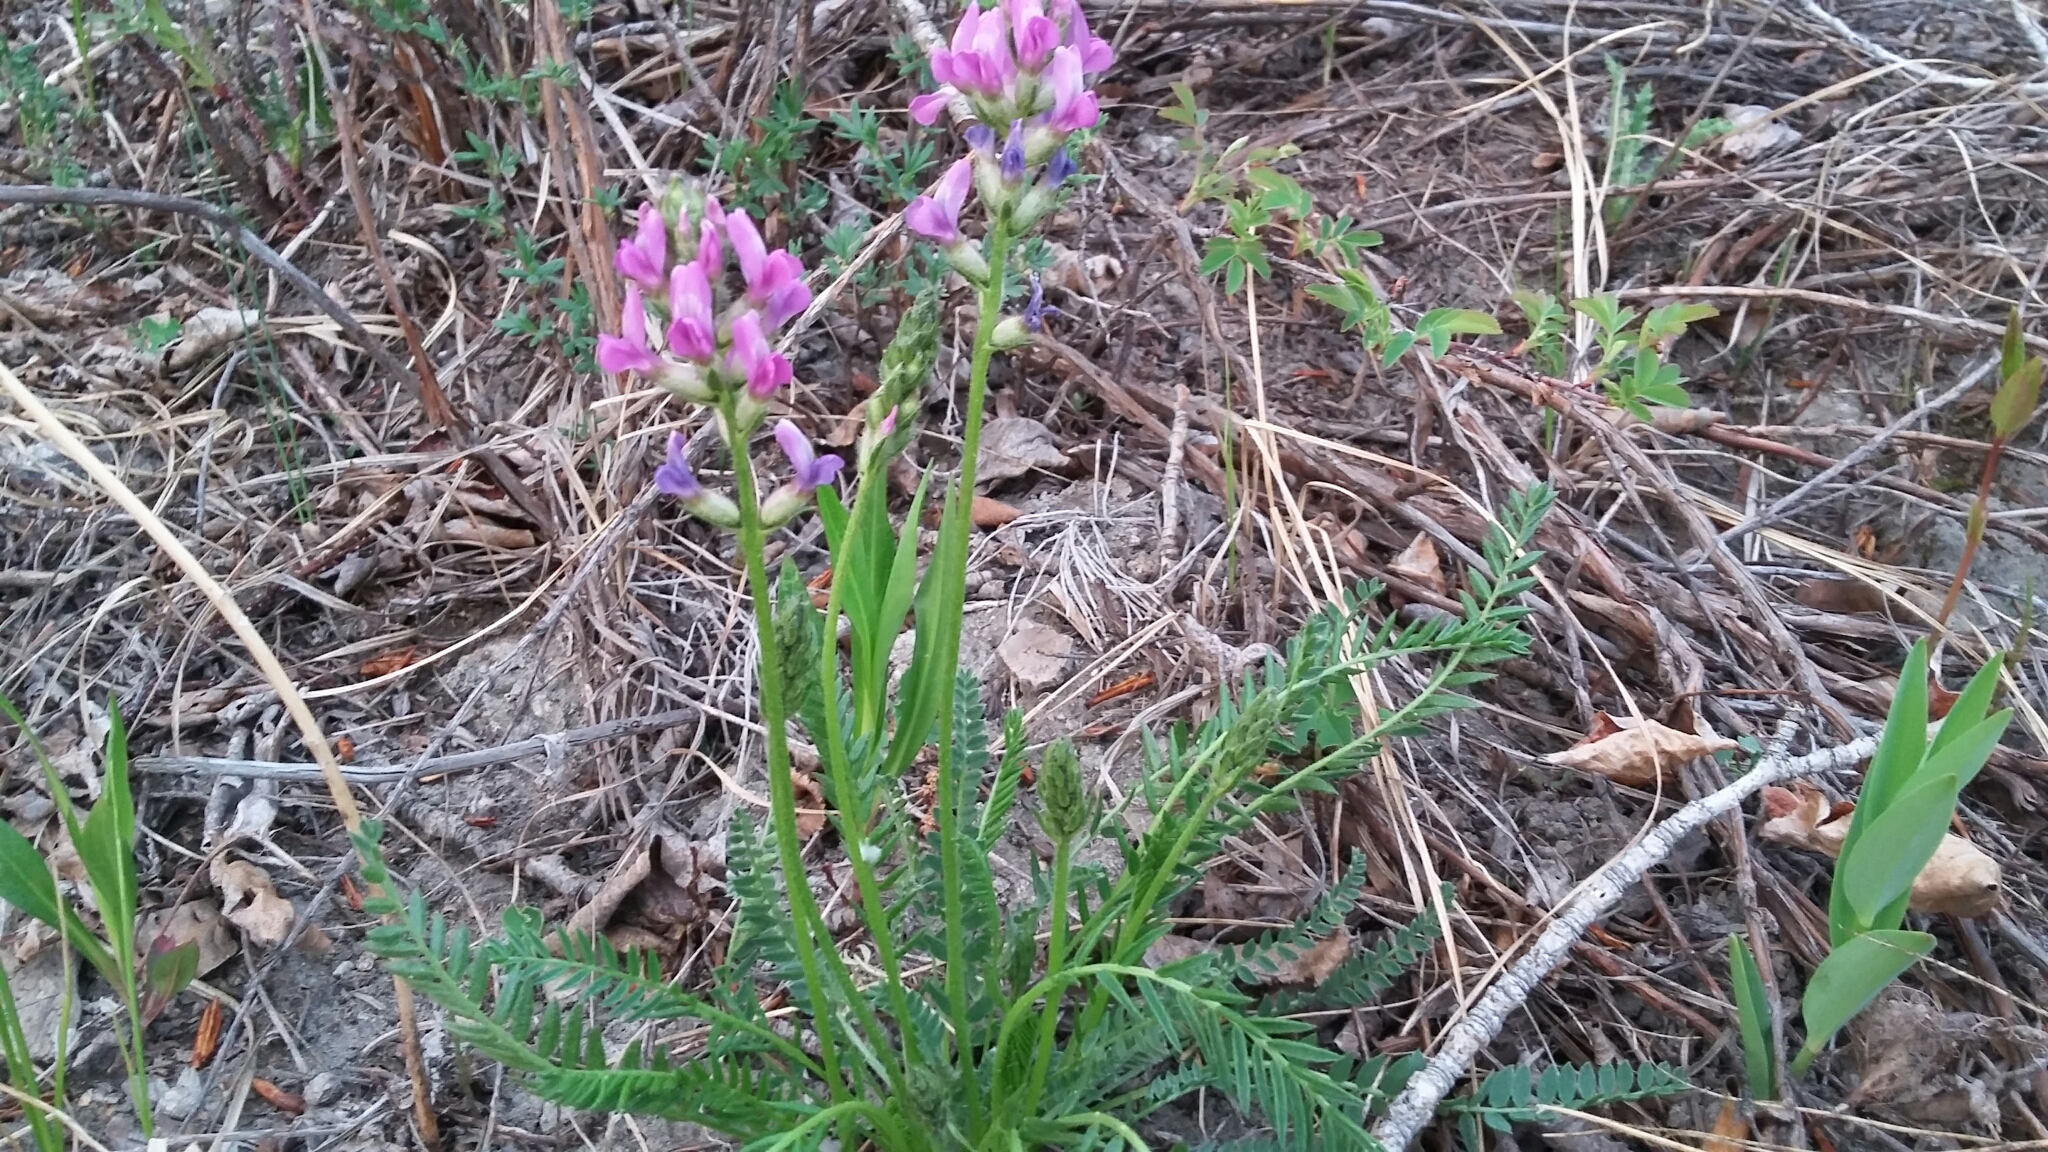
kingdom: Plantae
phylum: Tracheophyta
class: Magnoliopsida
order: Fabales
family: Fabaceae
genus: Oxytropis
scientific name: Oxytropis borealis
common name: Boreal locoweed
